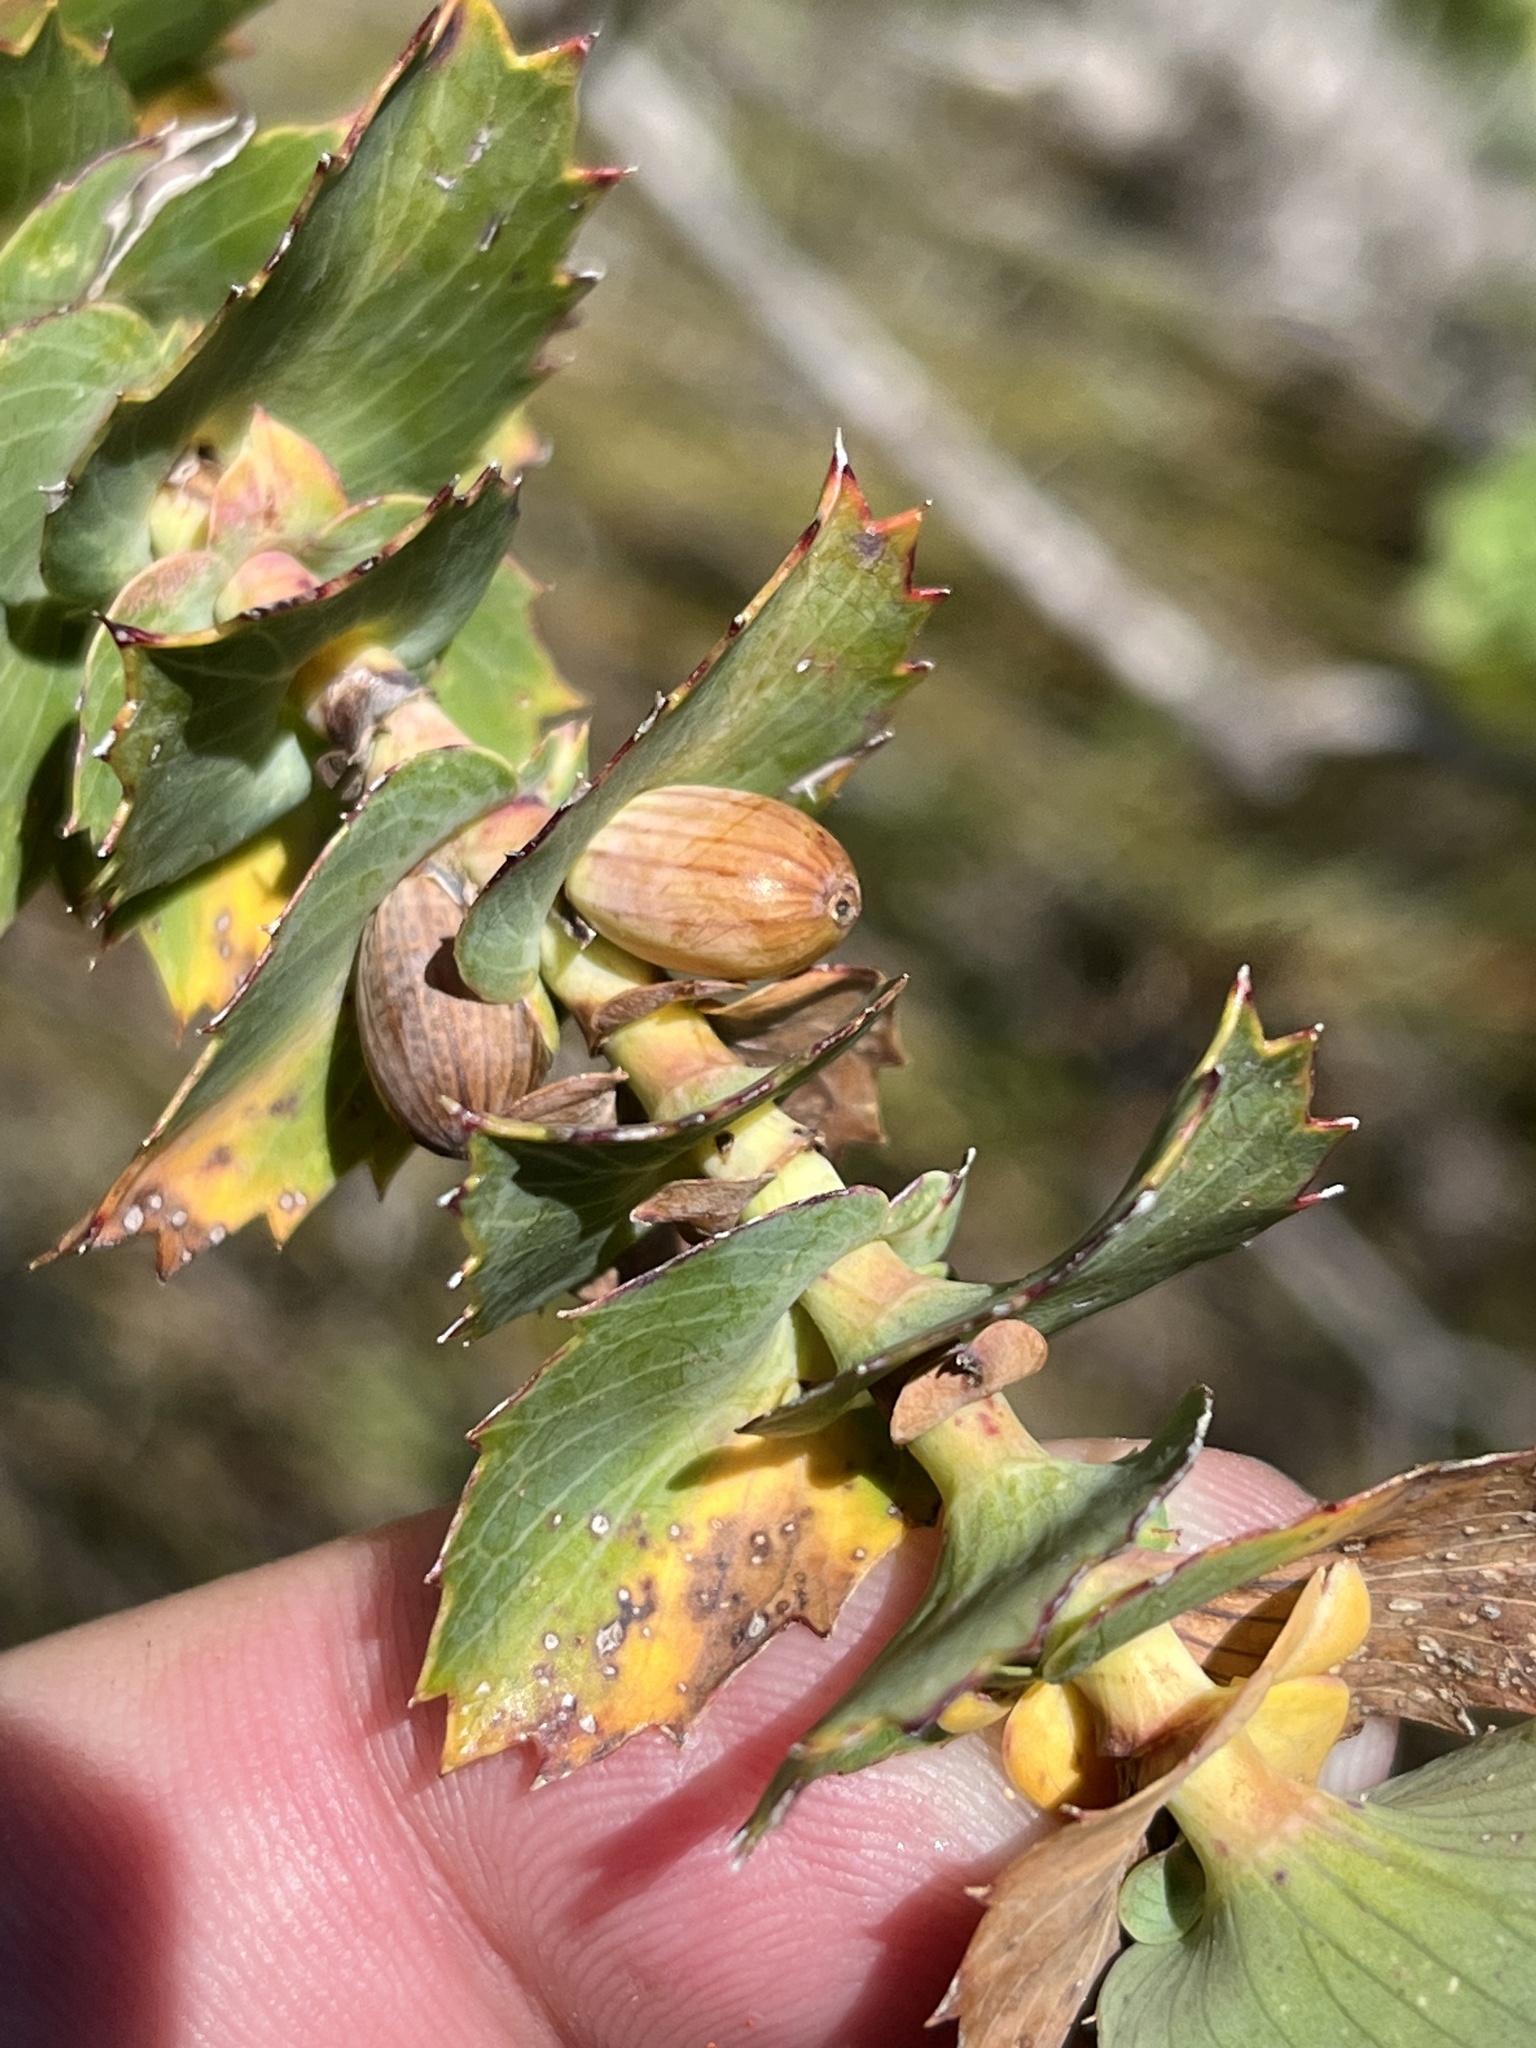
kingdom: Plantae
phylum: Tracheophyta
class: Magnoliopsida
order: Rosales
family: Rosaceae
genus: Cliffortia
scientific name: Cliffortia reniformis
